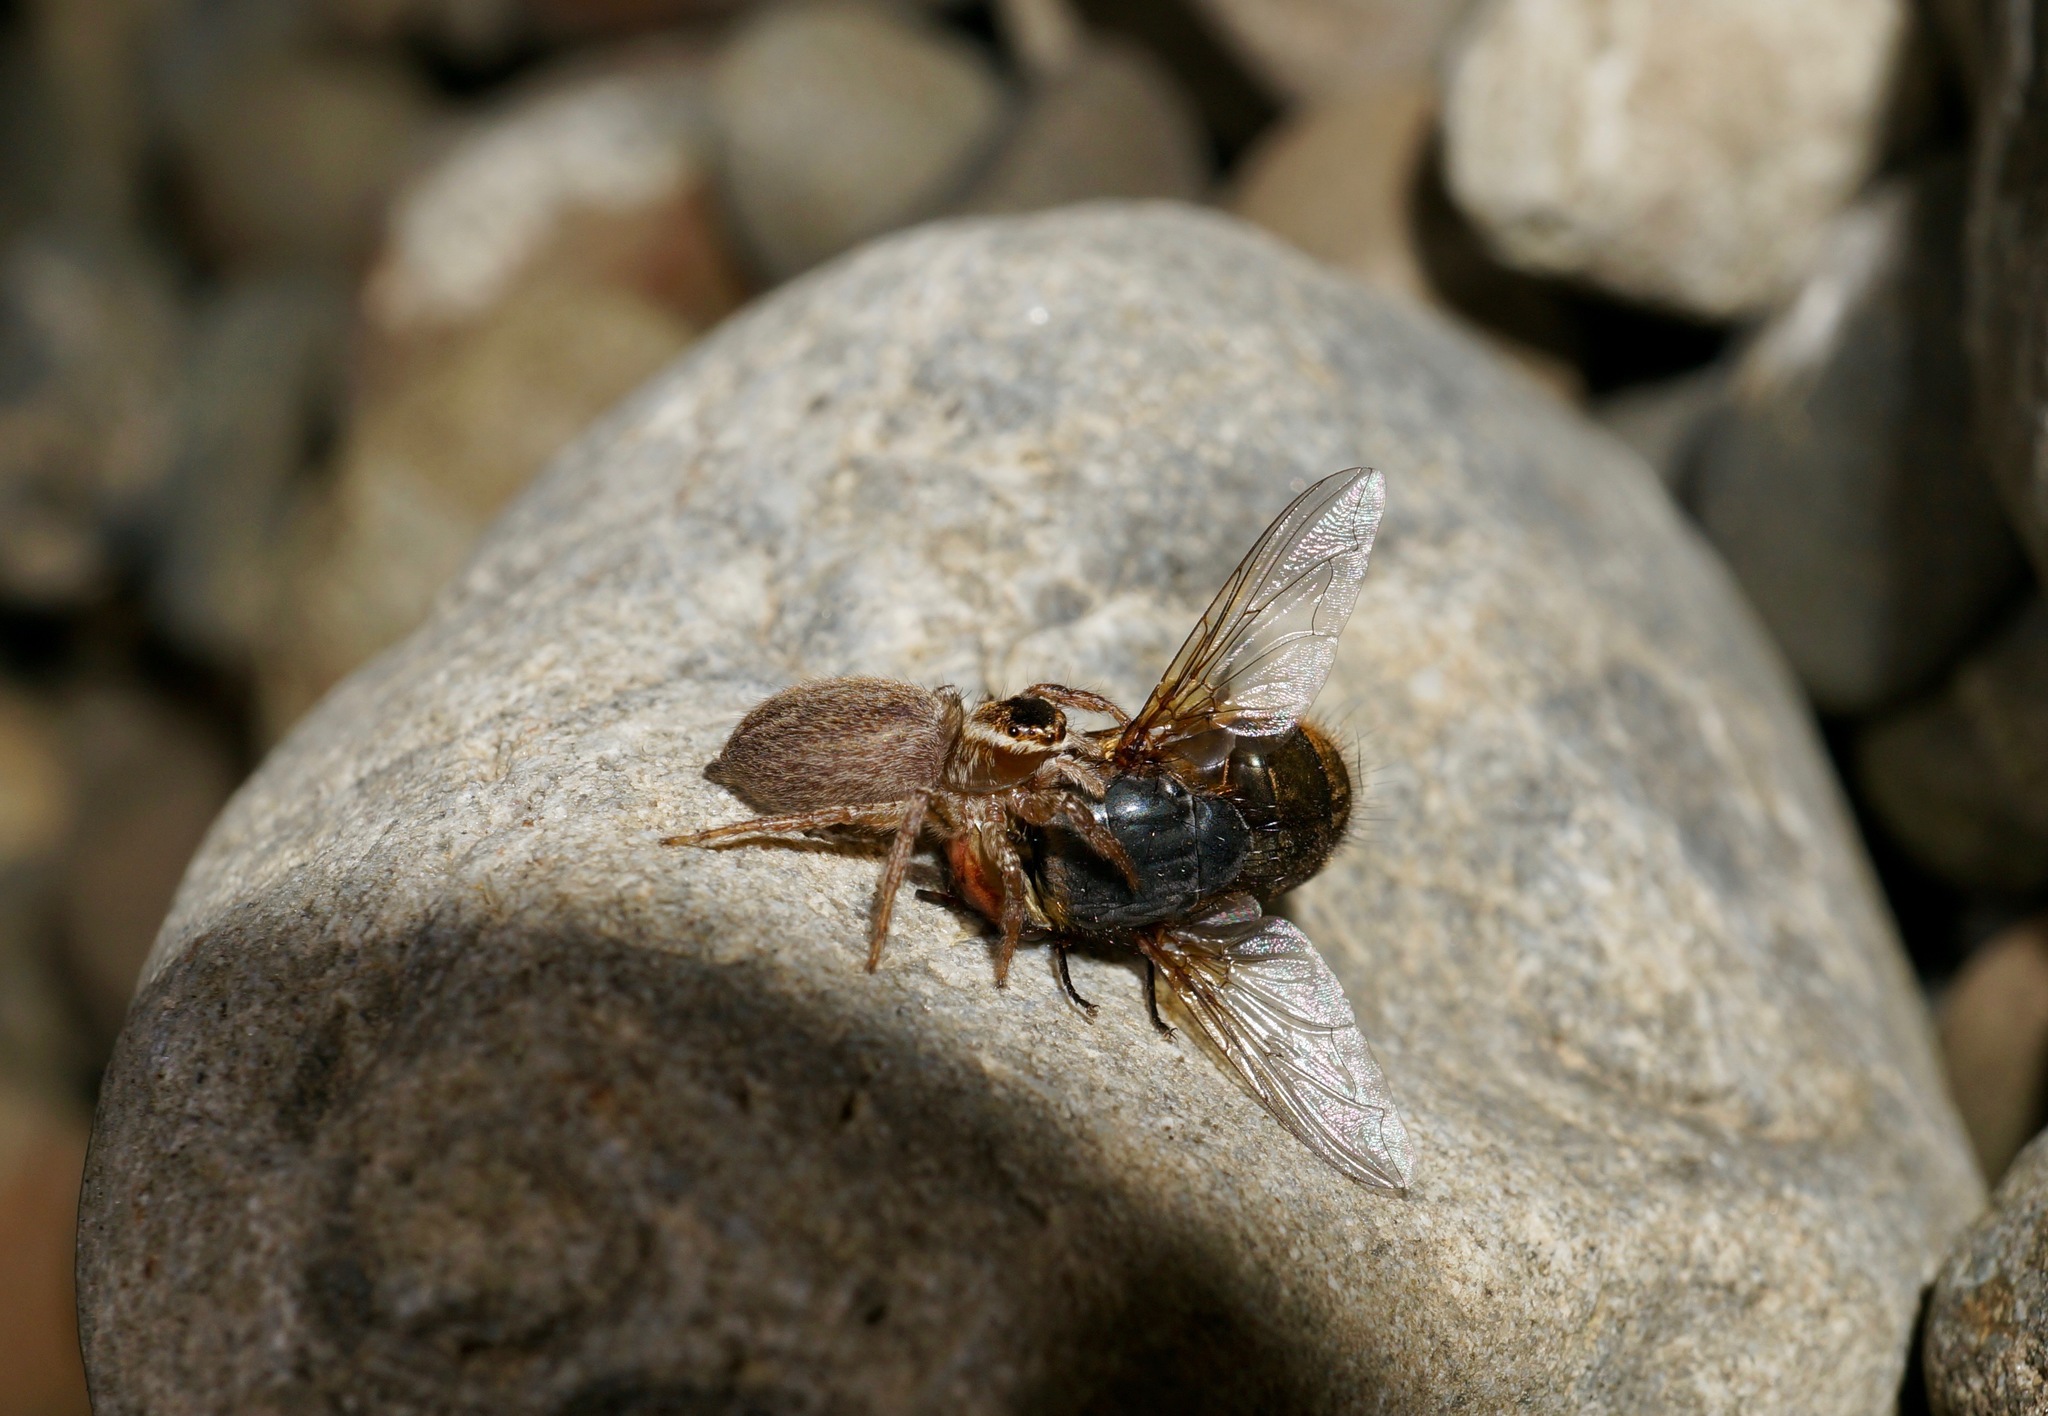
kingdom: Animalia
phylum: Arthropoda
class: Arachnida
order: Araneae
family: Salticidae
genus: Maratus
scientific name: Maratus griseus
